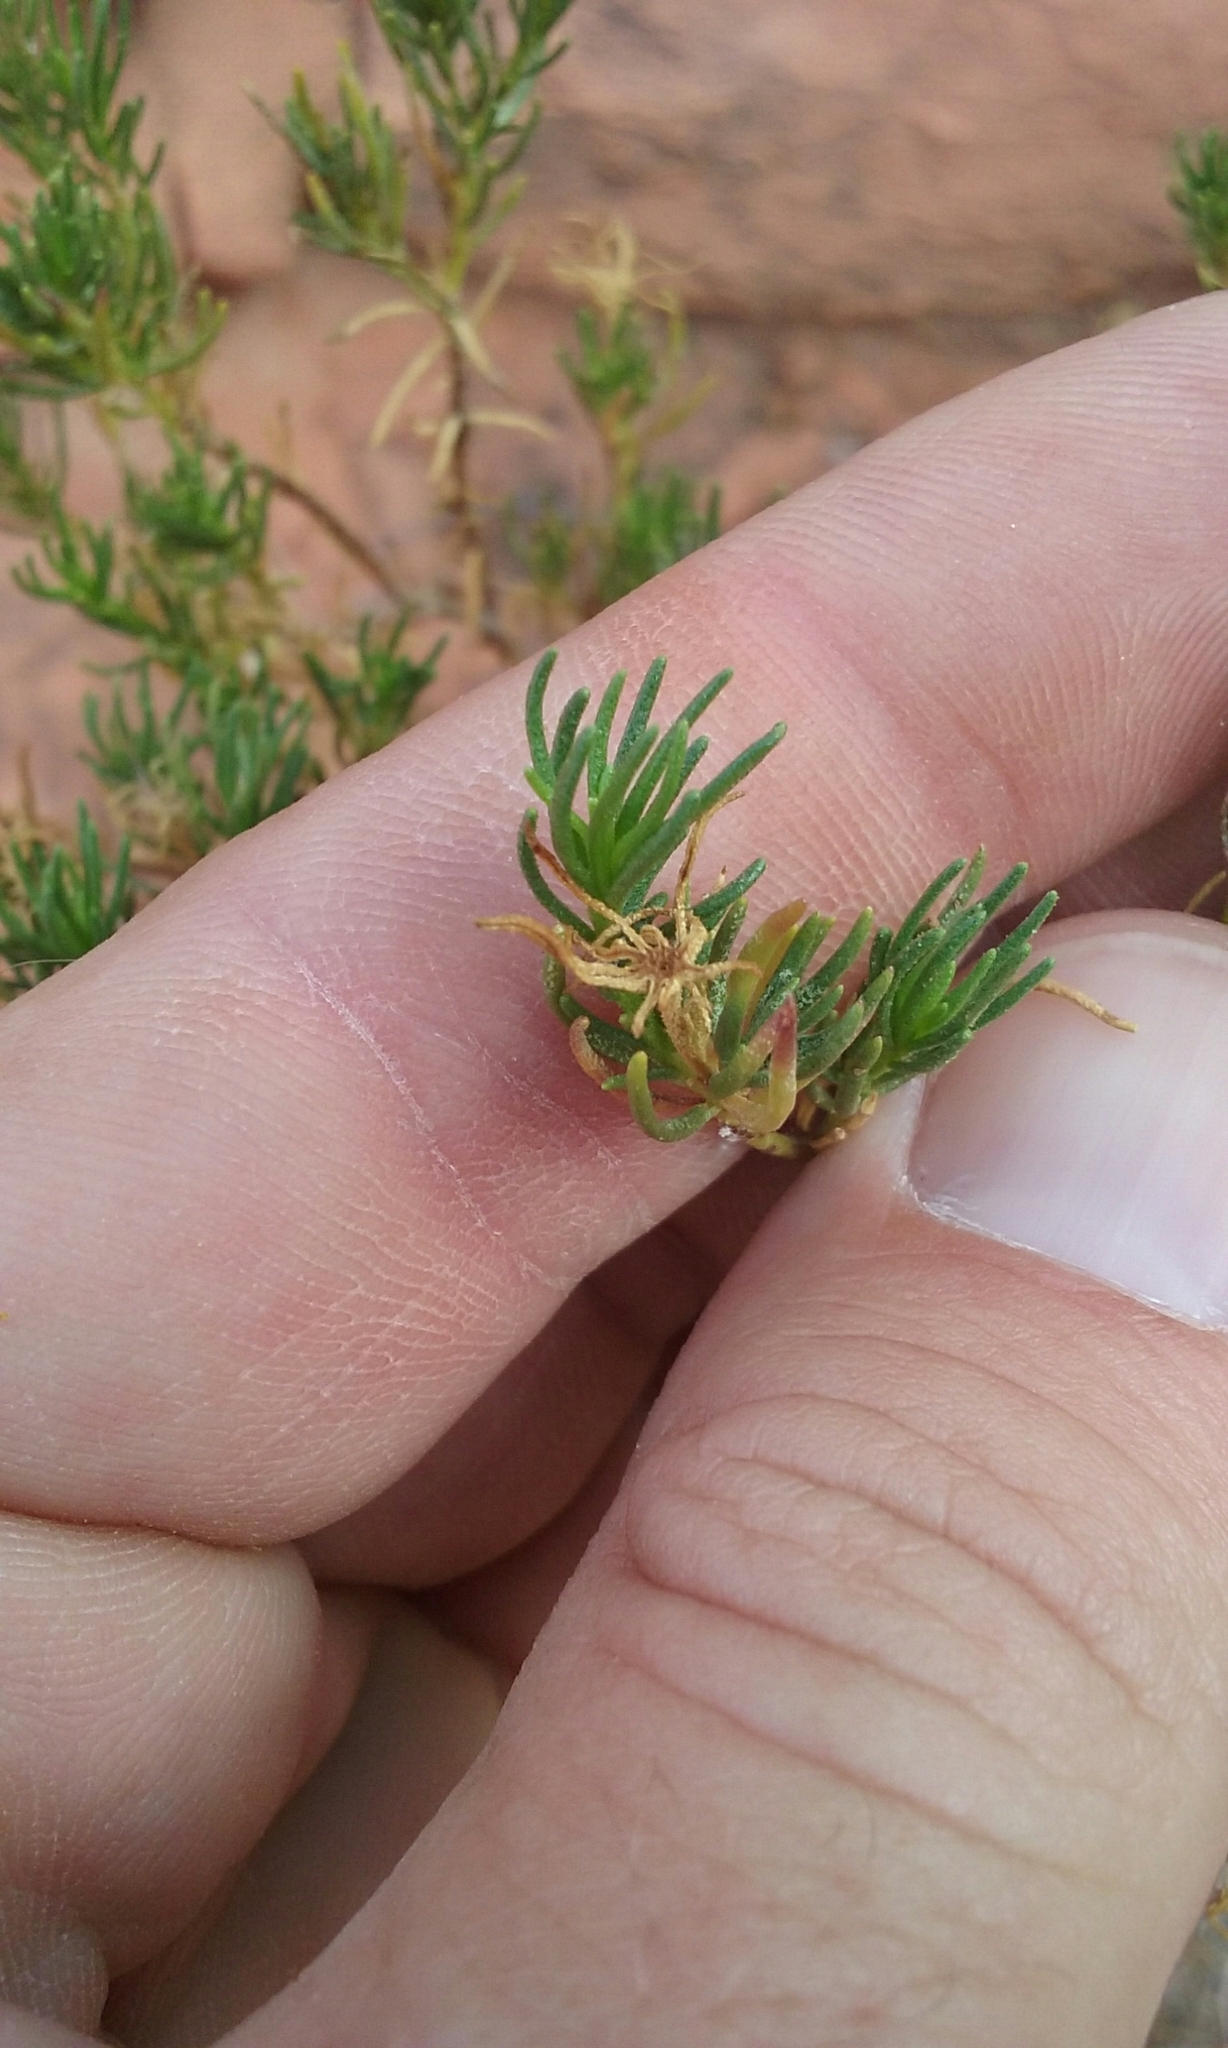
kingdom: Plantae
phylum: Tracheophyta
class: Magnoliopsida
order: Asterales
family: Asteraceae
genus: Peucephyllum
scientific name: Peucephyllum schottii
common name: Pygmy-cedar
